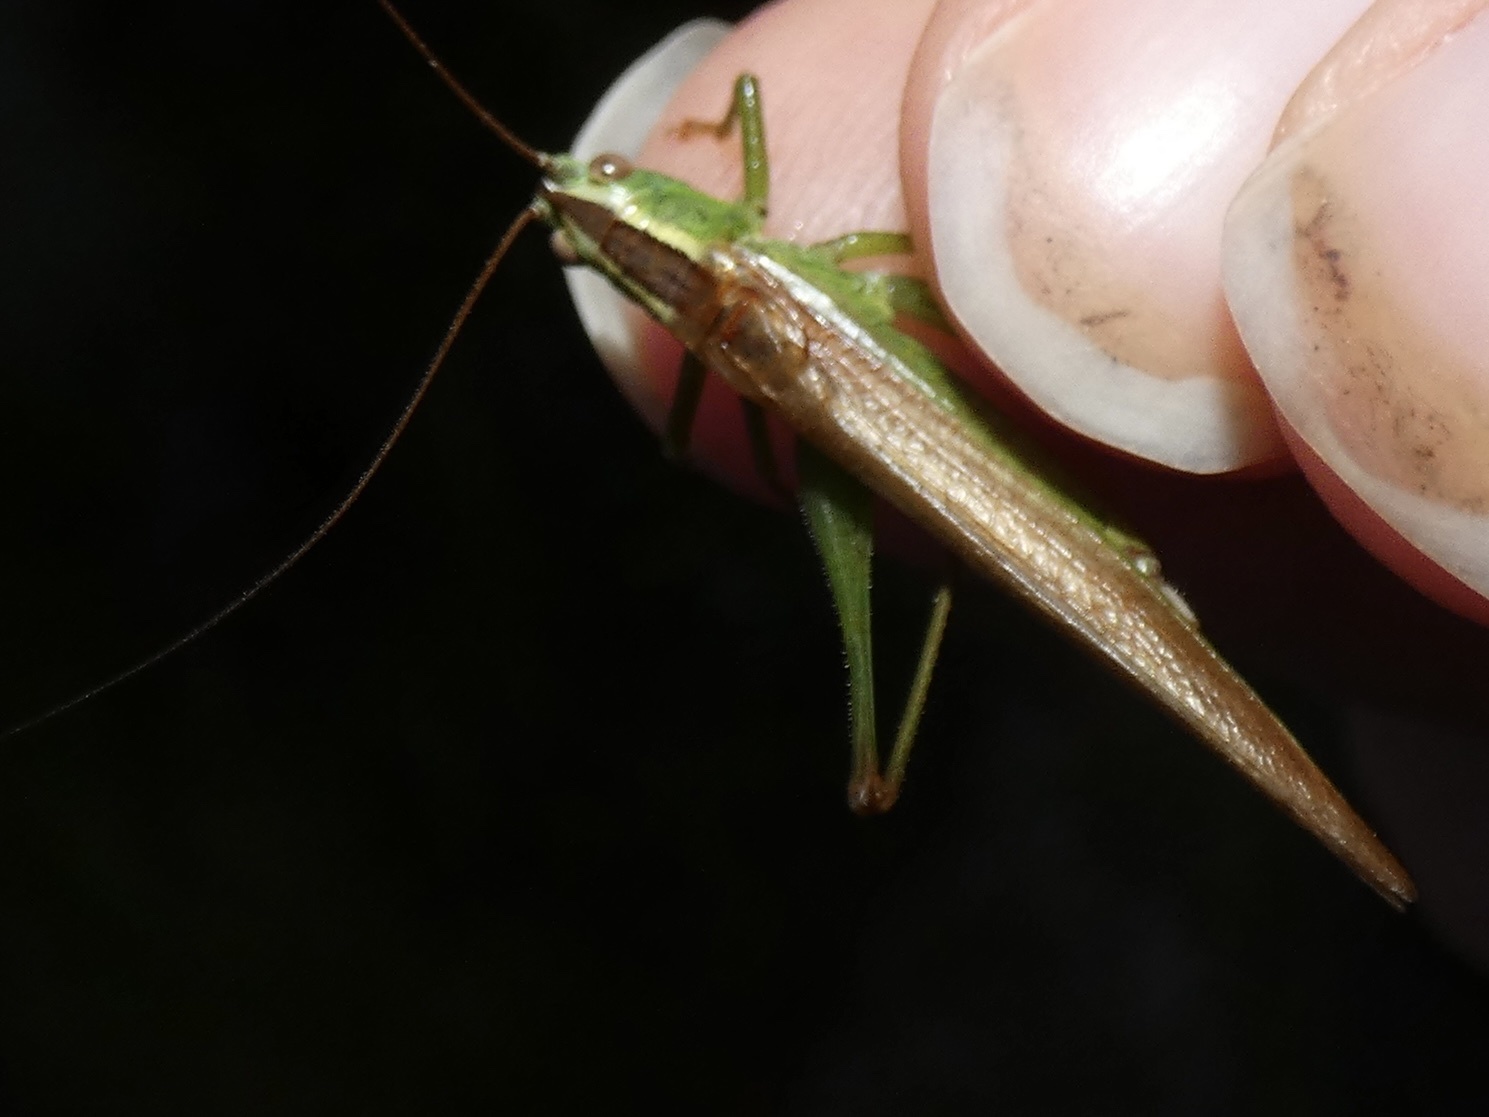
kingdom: Animalia
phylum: Arthropoda
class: Insecta
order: Orthoptera
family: Tettigoniidae
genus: Conocephalus
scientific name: Conocephalus fuscus
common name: Long-winged conehead
